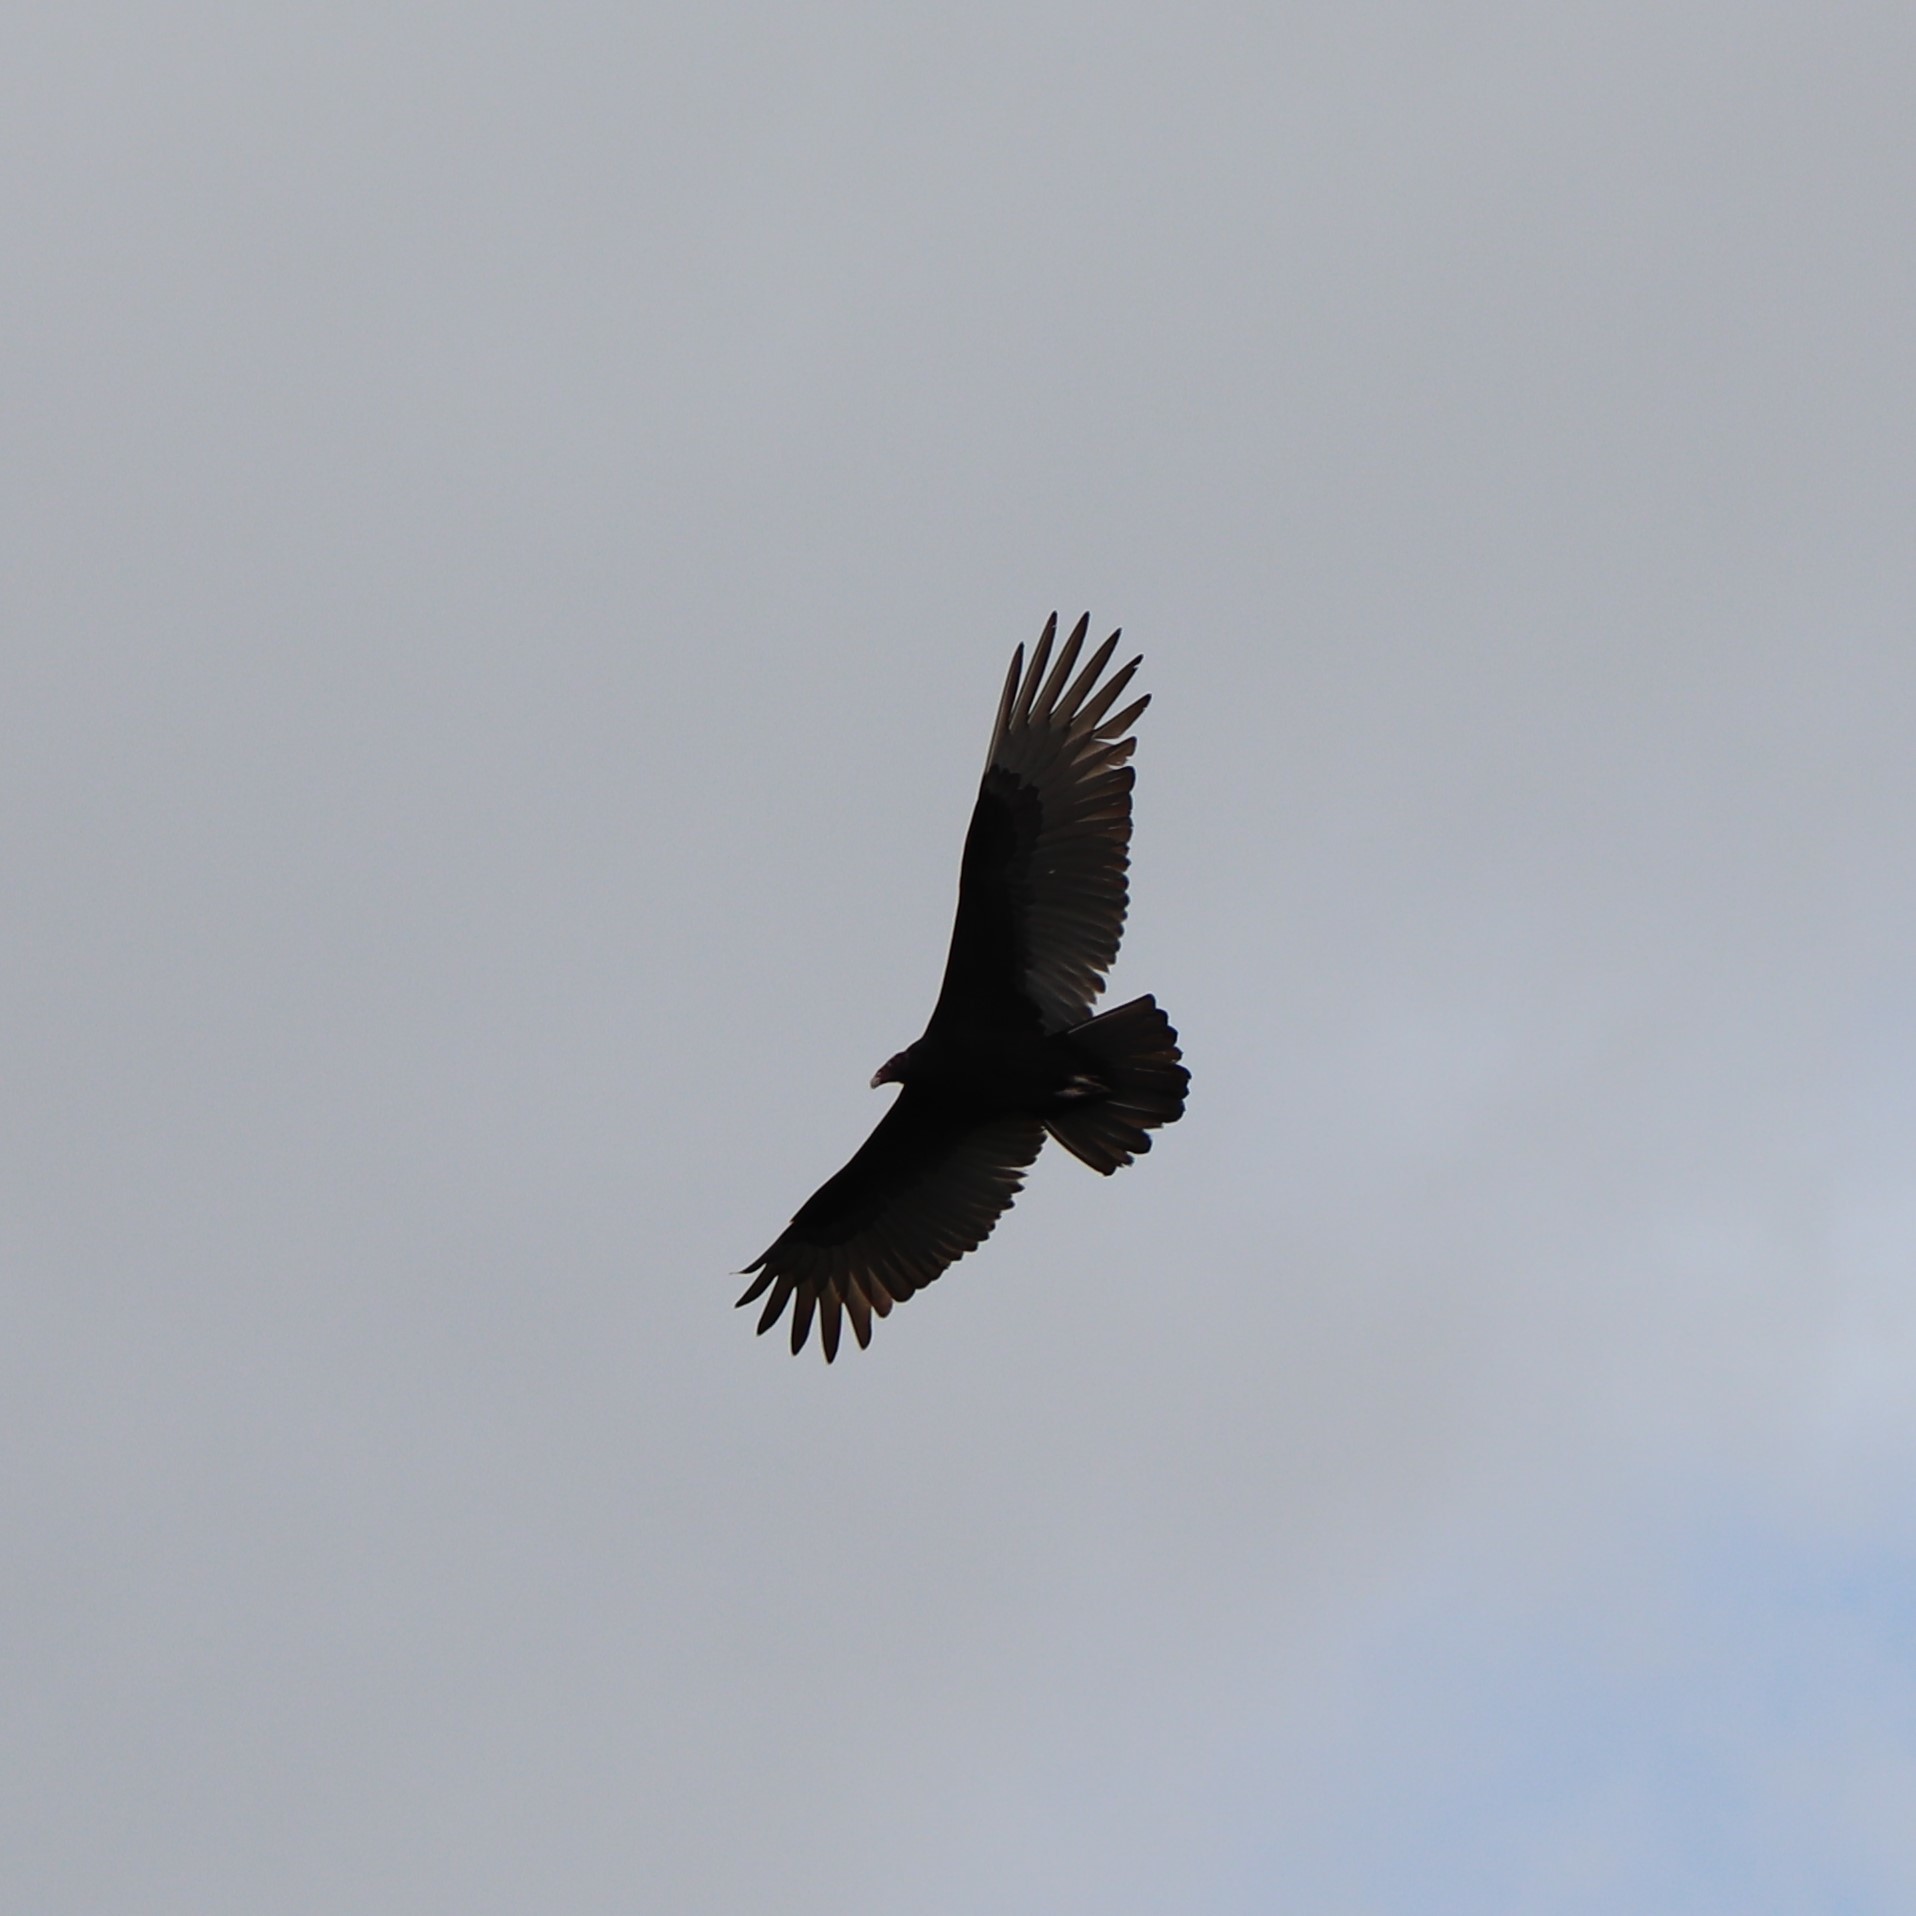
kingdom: Animalia
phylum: Chordata
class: Aves
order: Accipitriformes
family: Cathartidae
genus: Cathartes
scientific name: Cathartes aura
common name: Turkey vulture
